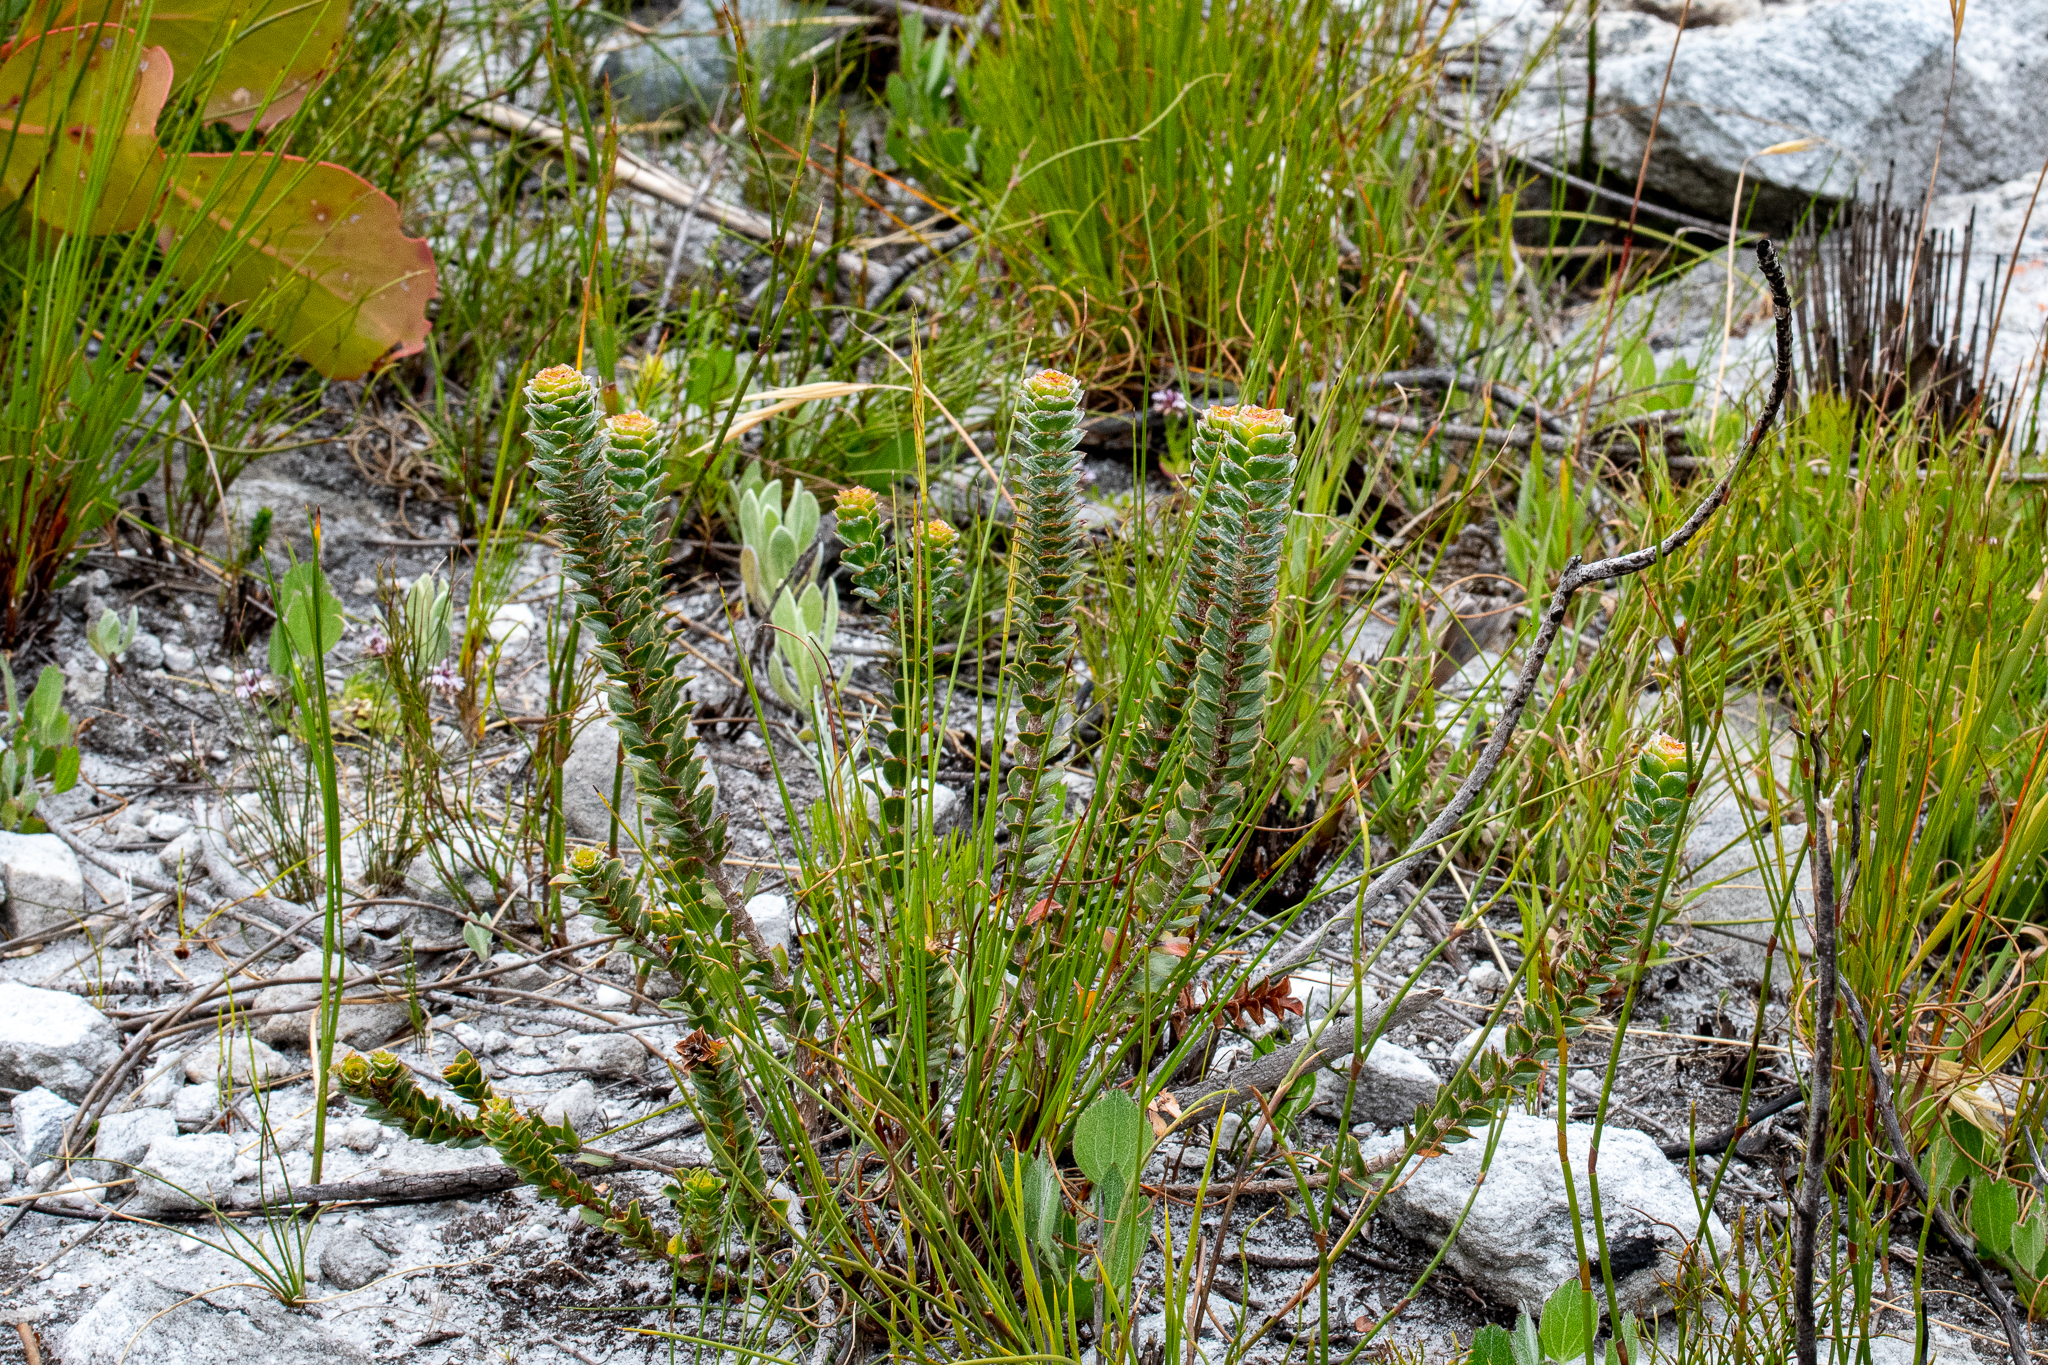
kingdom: Plantae
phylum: Tracheophyta
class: Magnoliopsida
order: Myrtales
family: Penaeaceae
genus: Saltera
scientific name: Saltera sarcocolla
